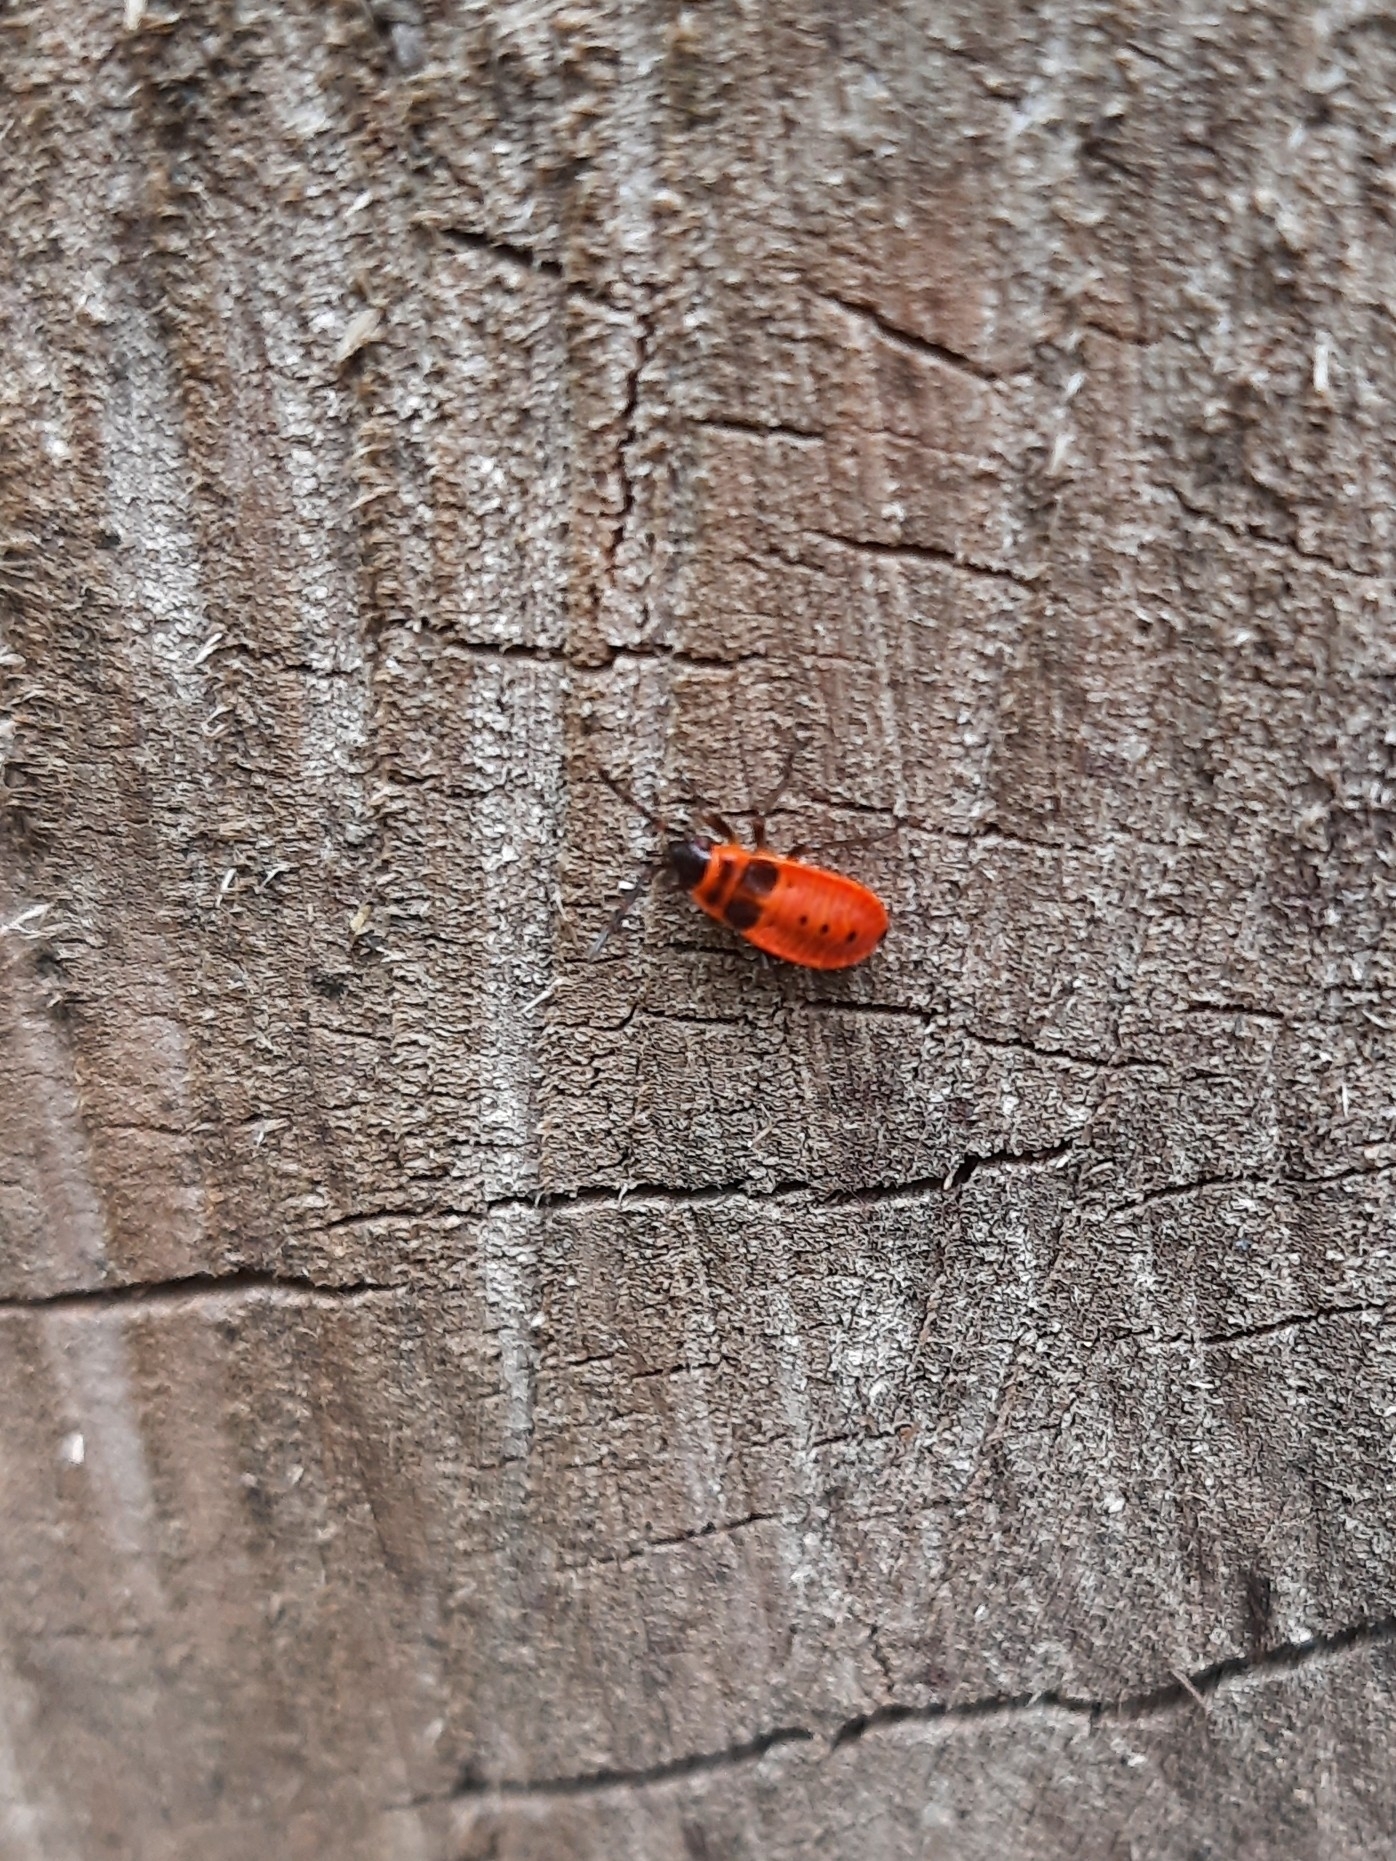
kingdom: Animalia
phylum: Arthropoda
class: Insecta
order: Hemiptera
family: Pyrrhocoridae
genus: Pyrrhocoris
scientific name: Pyrrhocoris apterus
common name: Firebug
